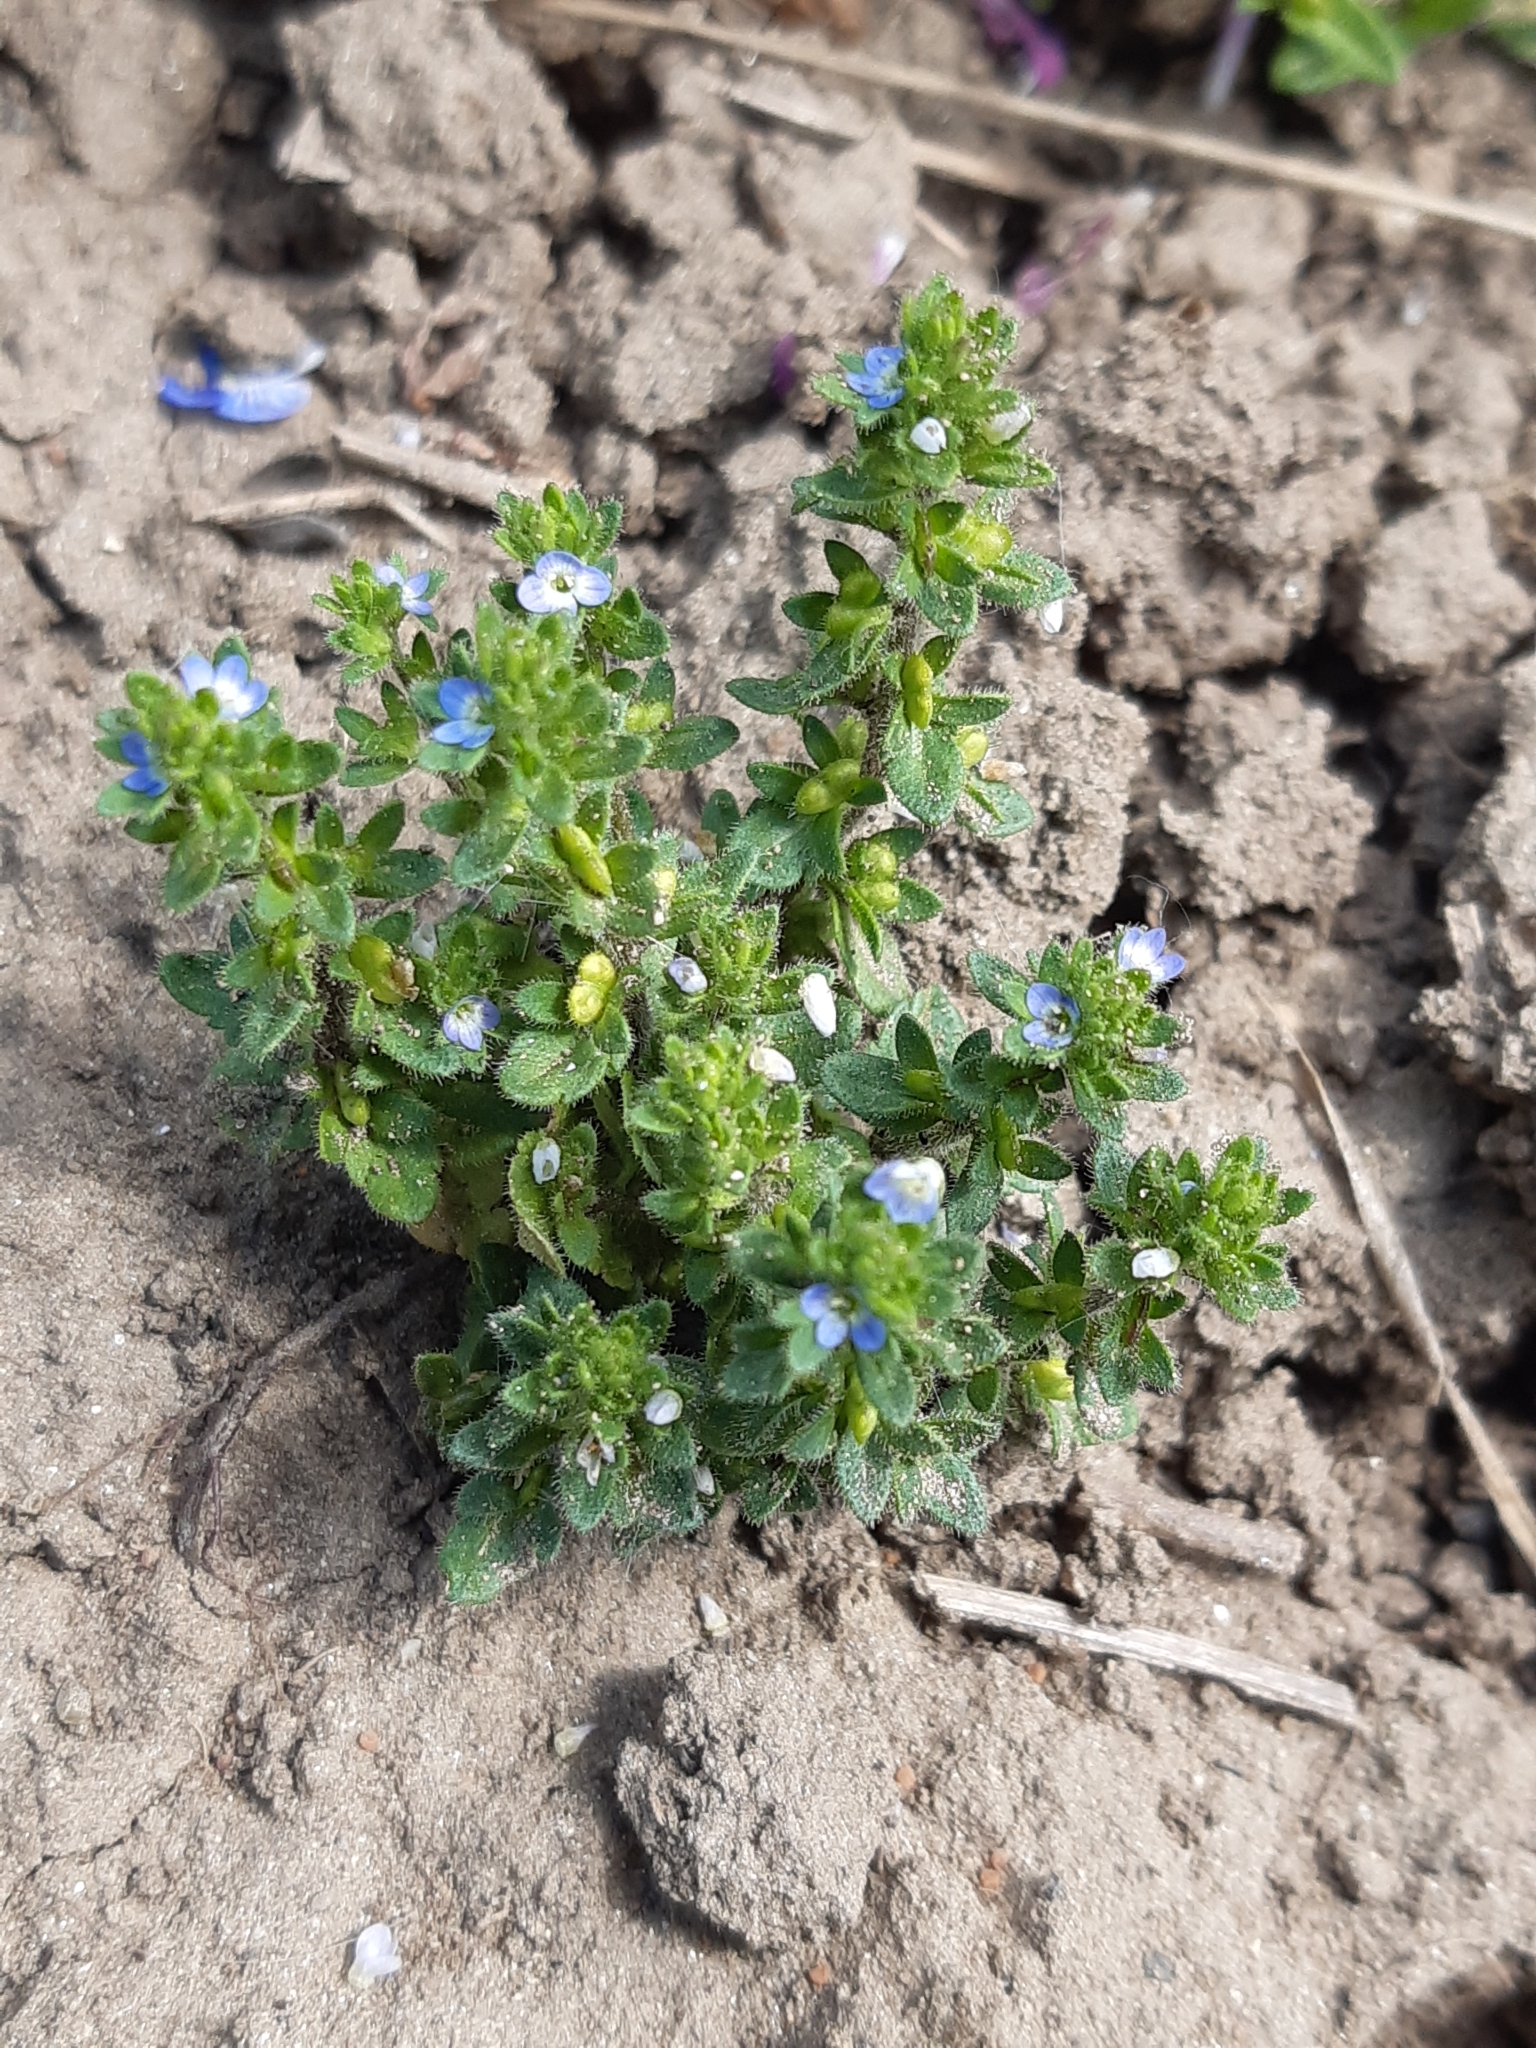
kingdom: Plantae
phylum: Tracheophyta
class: Magnoliopsida
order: Lamiales
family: Plantaginaceae
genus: Veronica
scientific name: Veronica arvensis
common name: Corn speedwell
